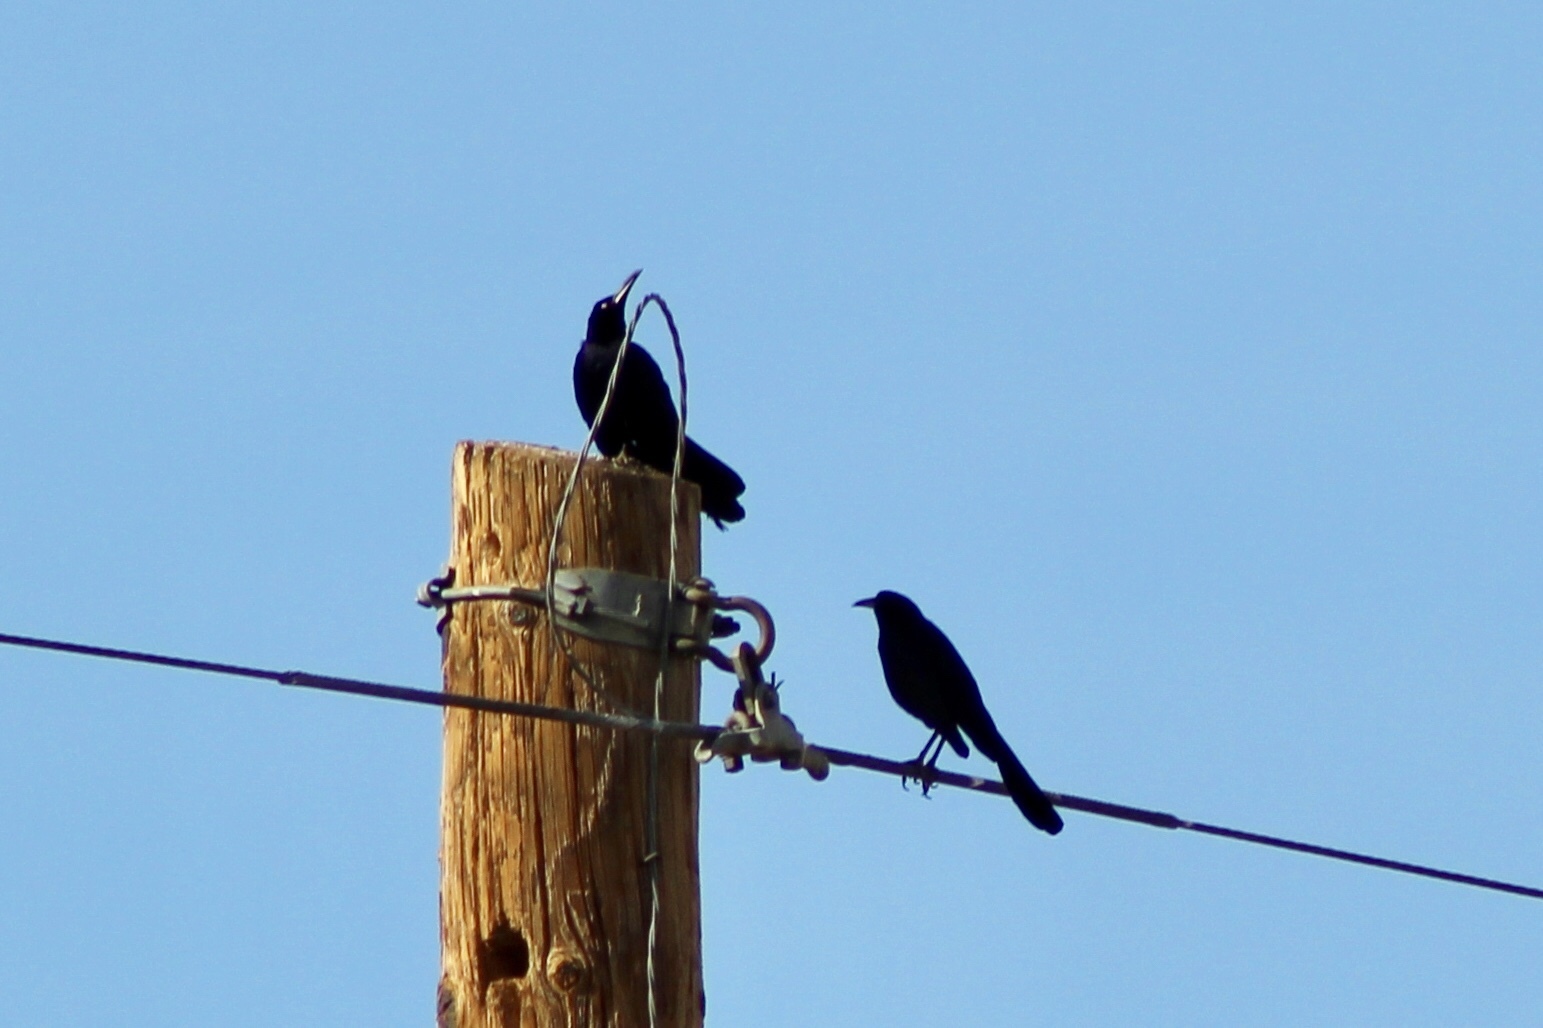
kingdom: Animalia
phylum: Chordata
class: Aves
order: Passeriformes
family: Icteridae
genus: Quiscalus
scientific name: Quiscalus mexicanus
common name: Great-tailed grackle
